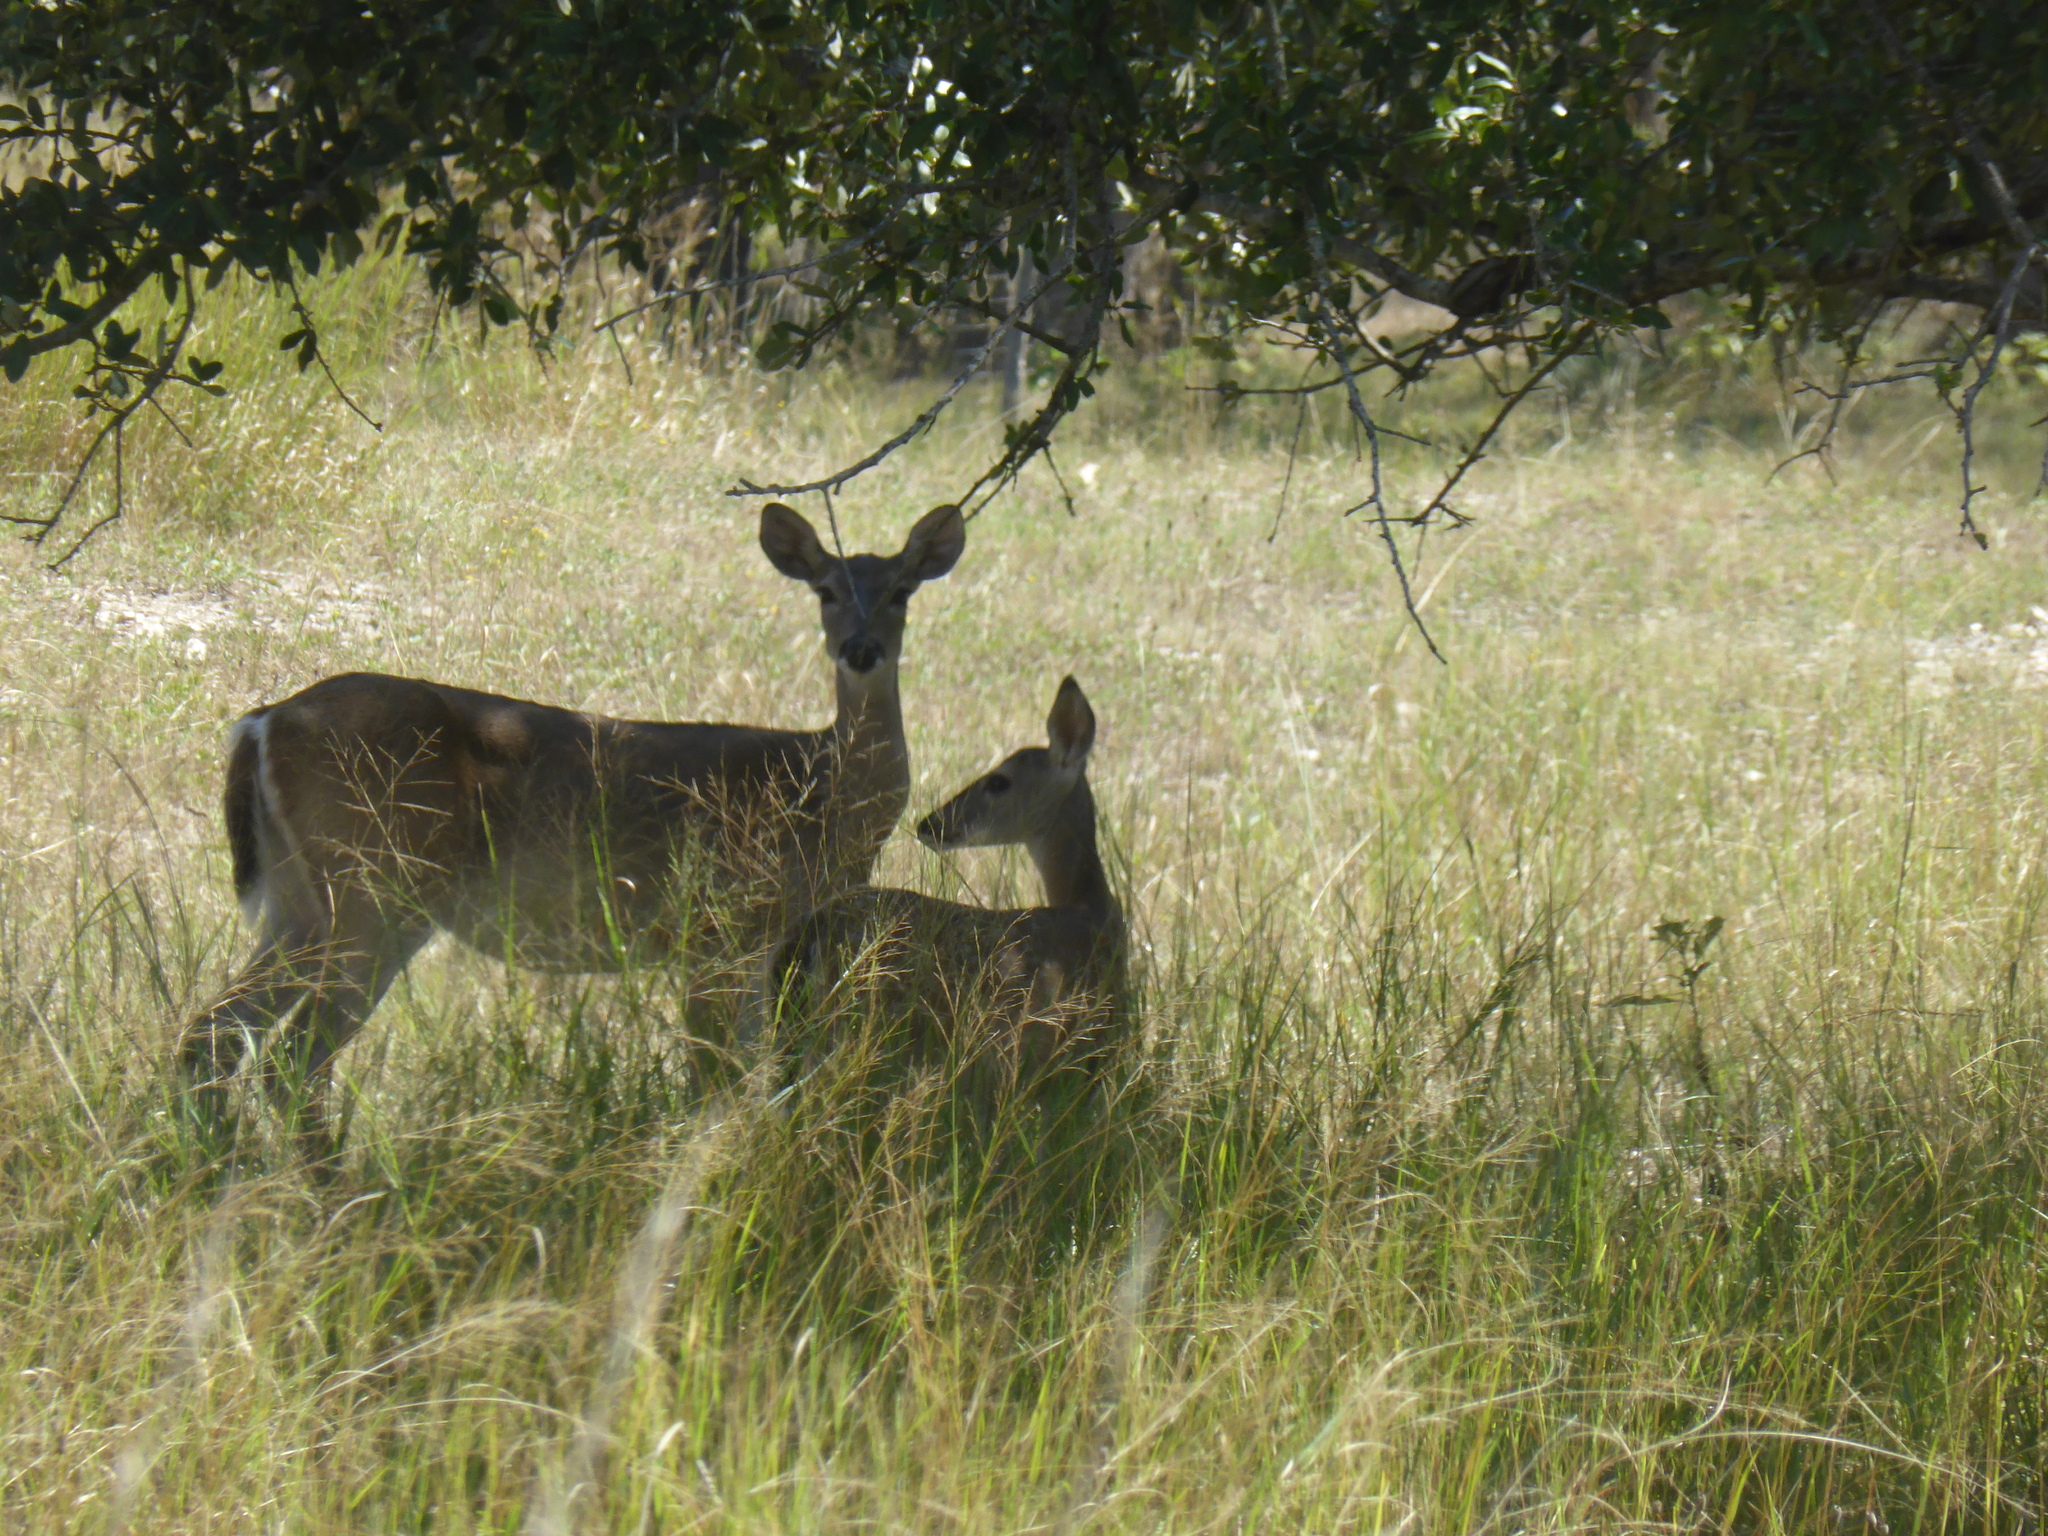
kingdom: Animalia
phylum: Chordata
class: Mammalia
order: Artiodactyla
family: Cervidae
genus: Odocoileus
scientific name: Odocoileus virginianus
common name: White-tailed deer
